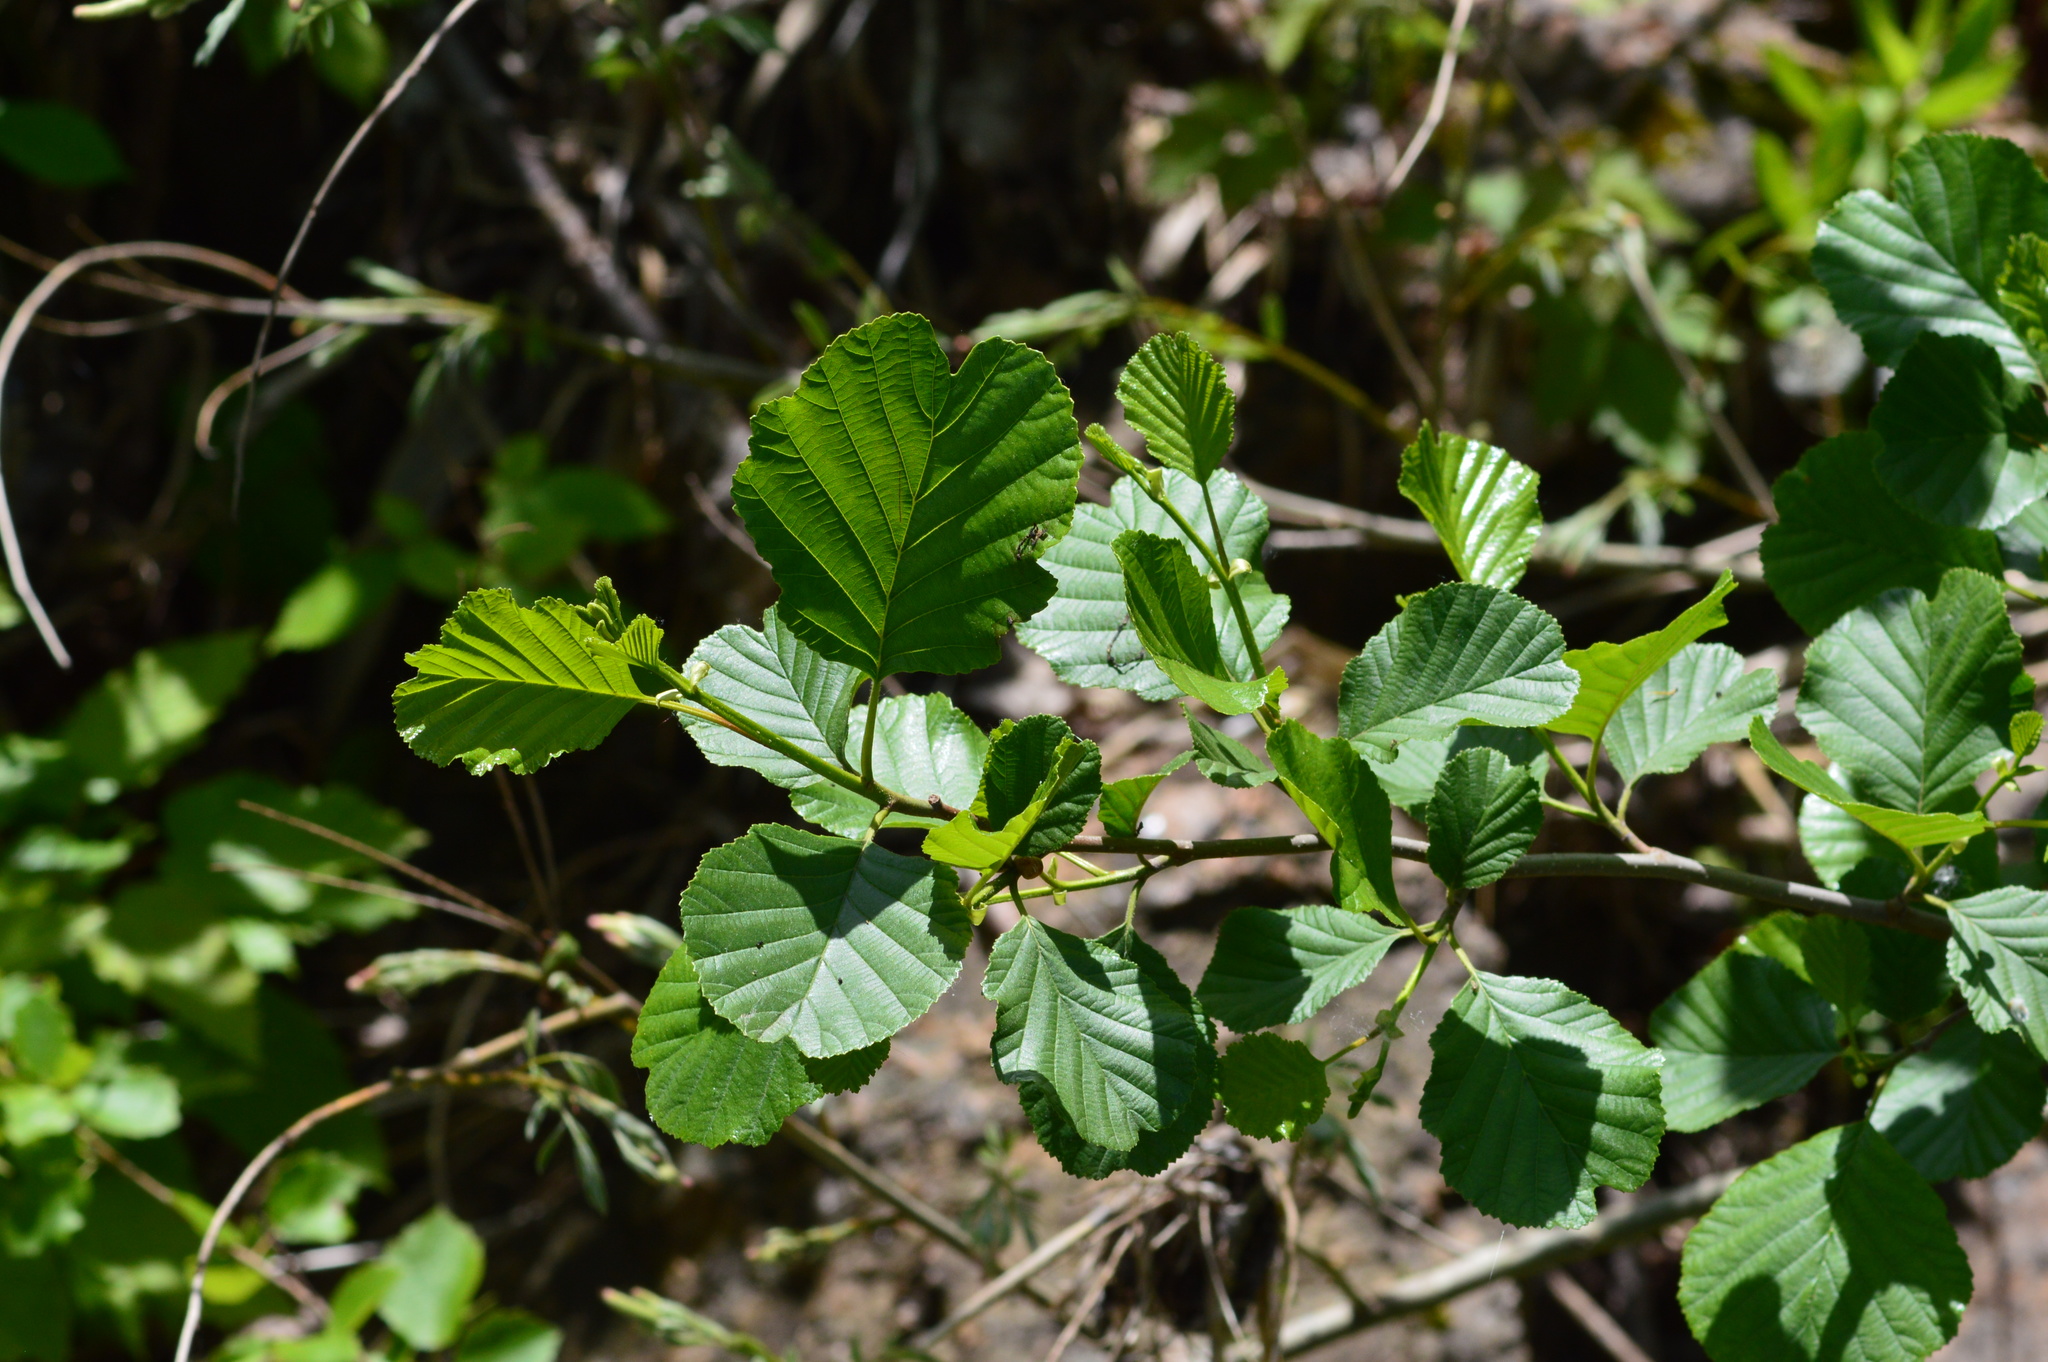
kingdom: Plantae
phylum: Tracheophyta
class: Magnoliopsida
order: Fagales
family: Betulaceae
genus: Alnus
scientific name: Alnus glutinosa
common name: Black alder
